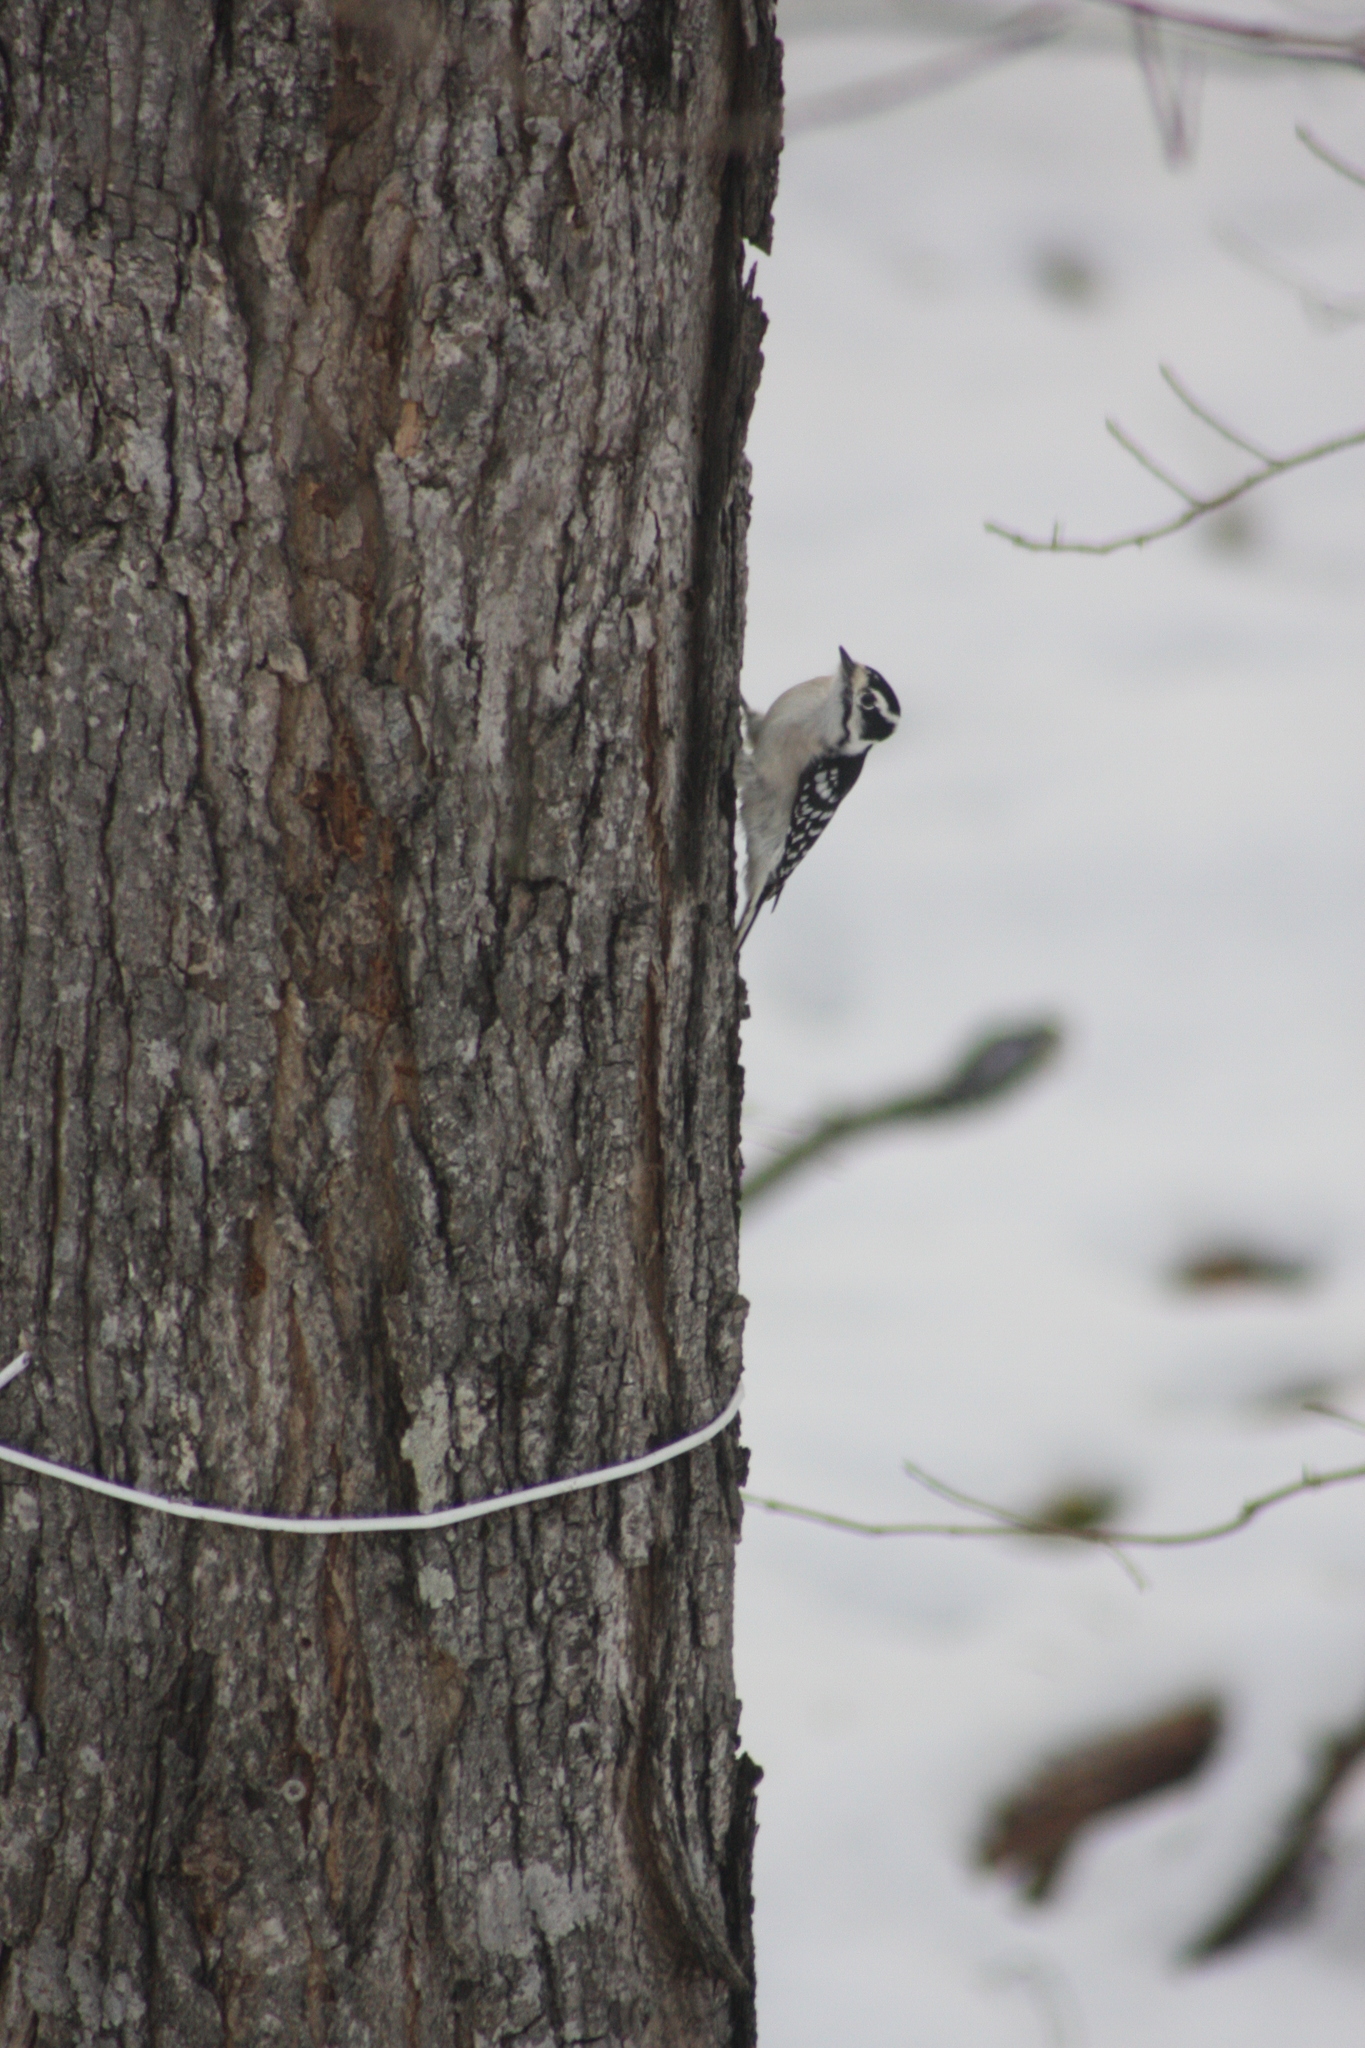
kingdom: Animalia
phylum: Chordata
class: Aves
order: Piciformes
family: Picidae
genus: Dryobates
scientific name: Dryobates pubescens
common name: Downy woodpecker
